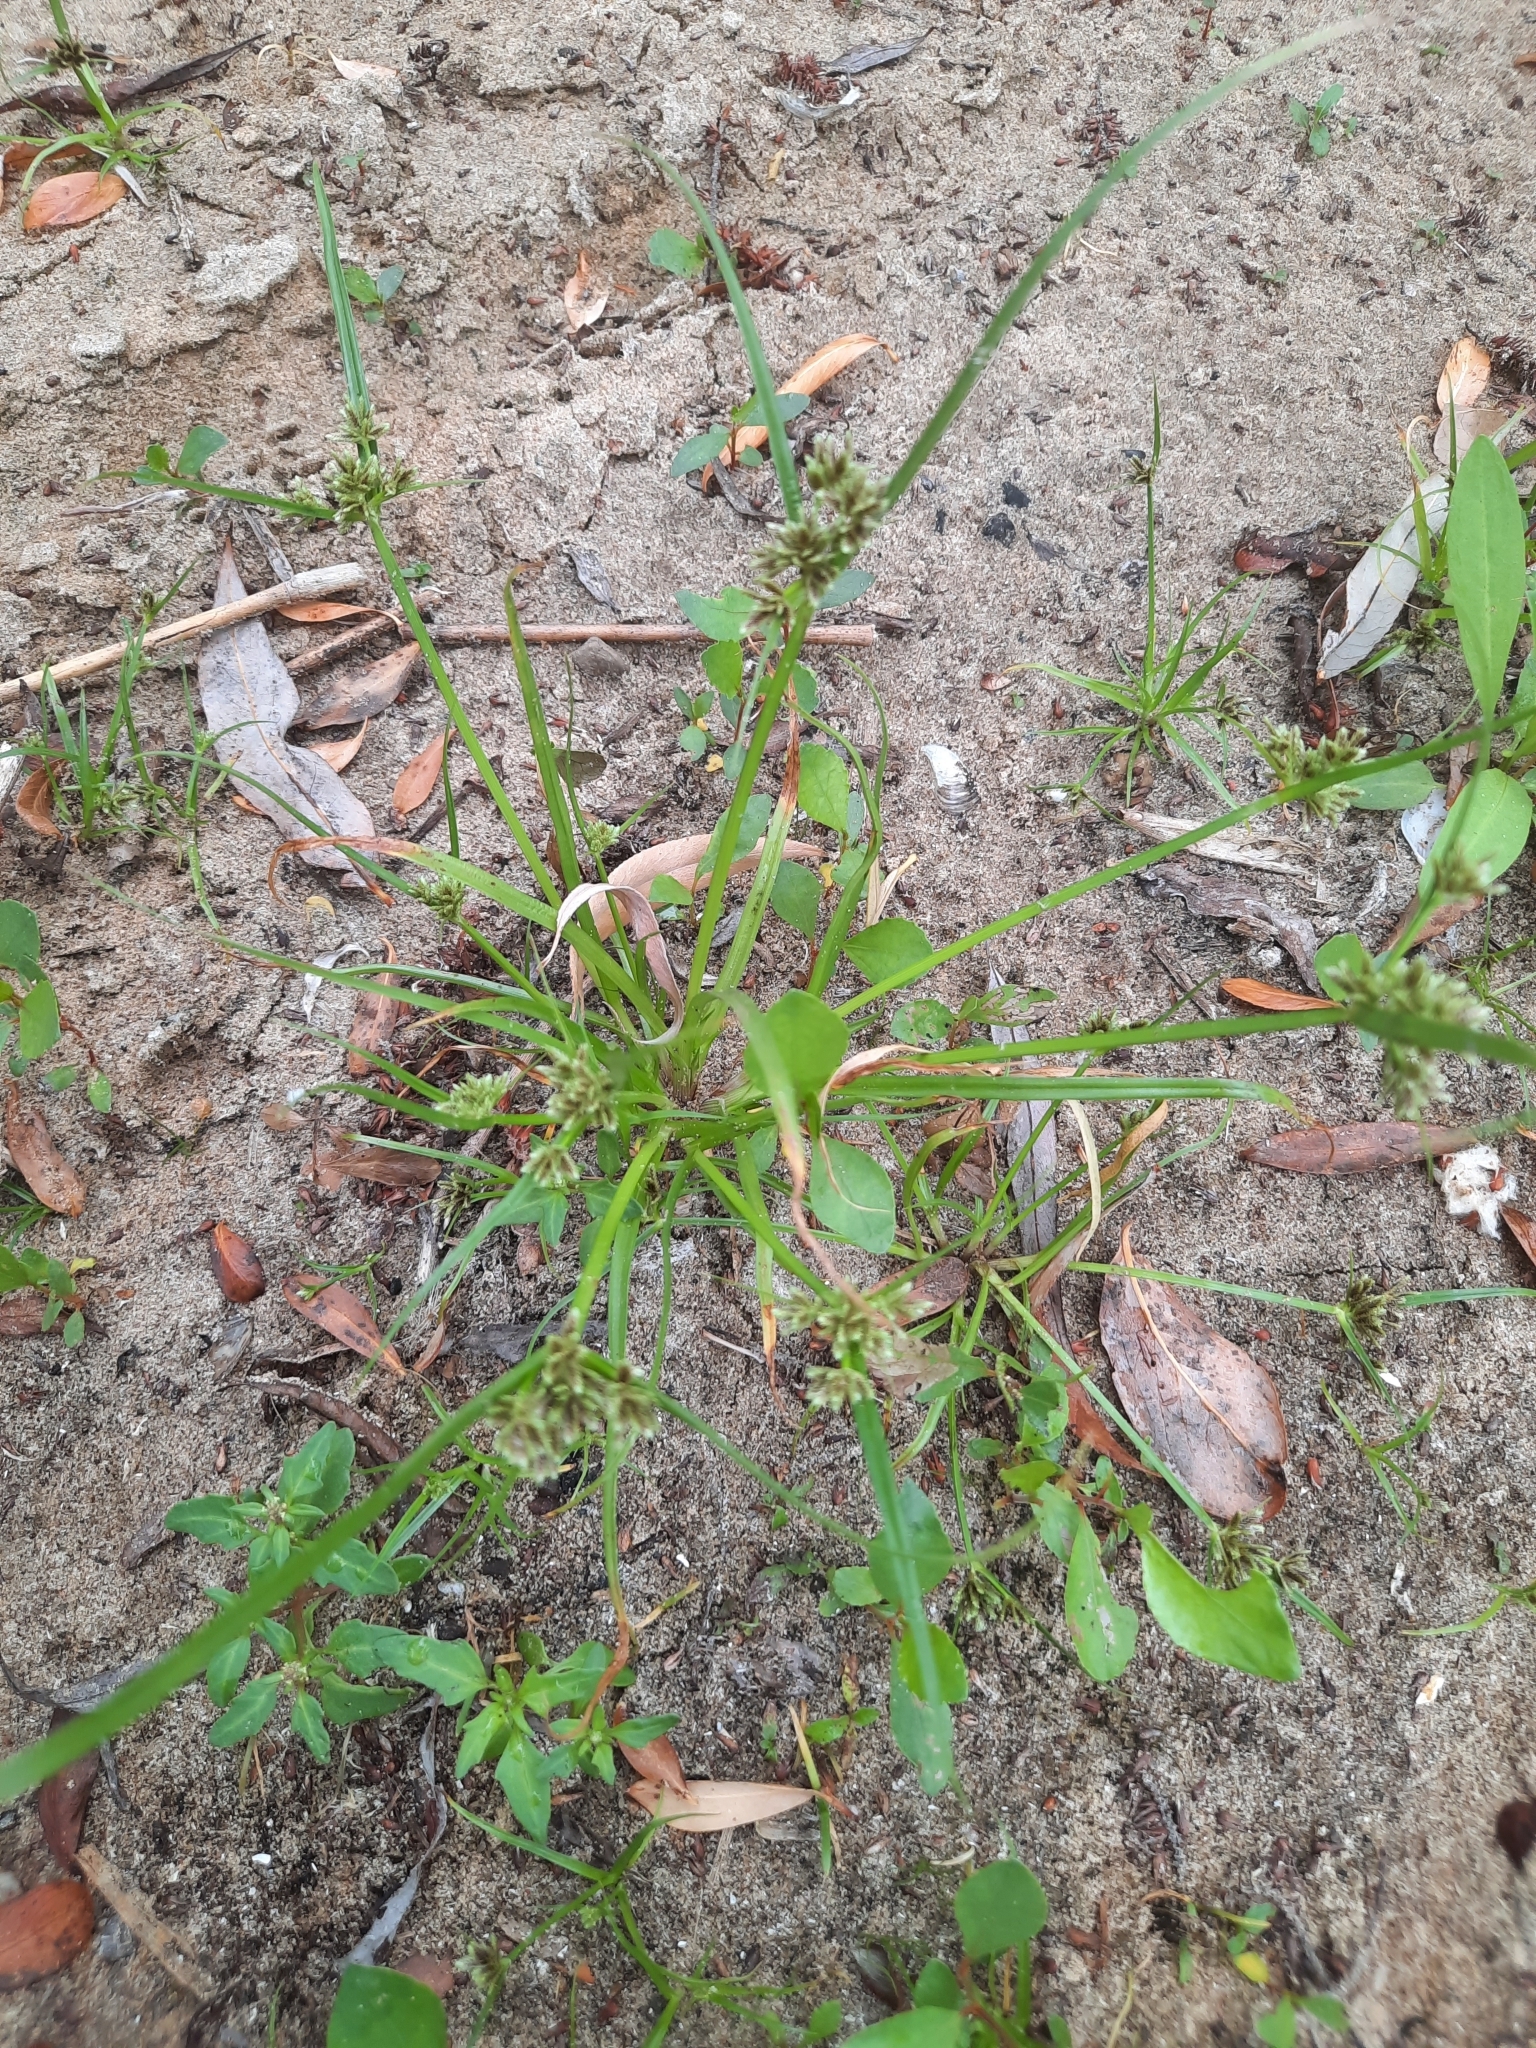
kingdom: Plantae
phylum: Tracheophyta
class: Liliopsida
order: Poales
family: Cyperaceae
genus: Cyperus
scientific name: Cyperus fuscus
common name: Brown galingale
